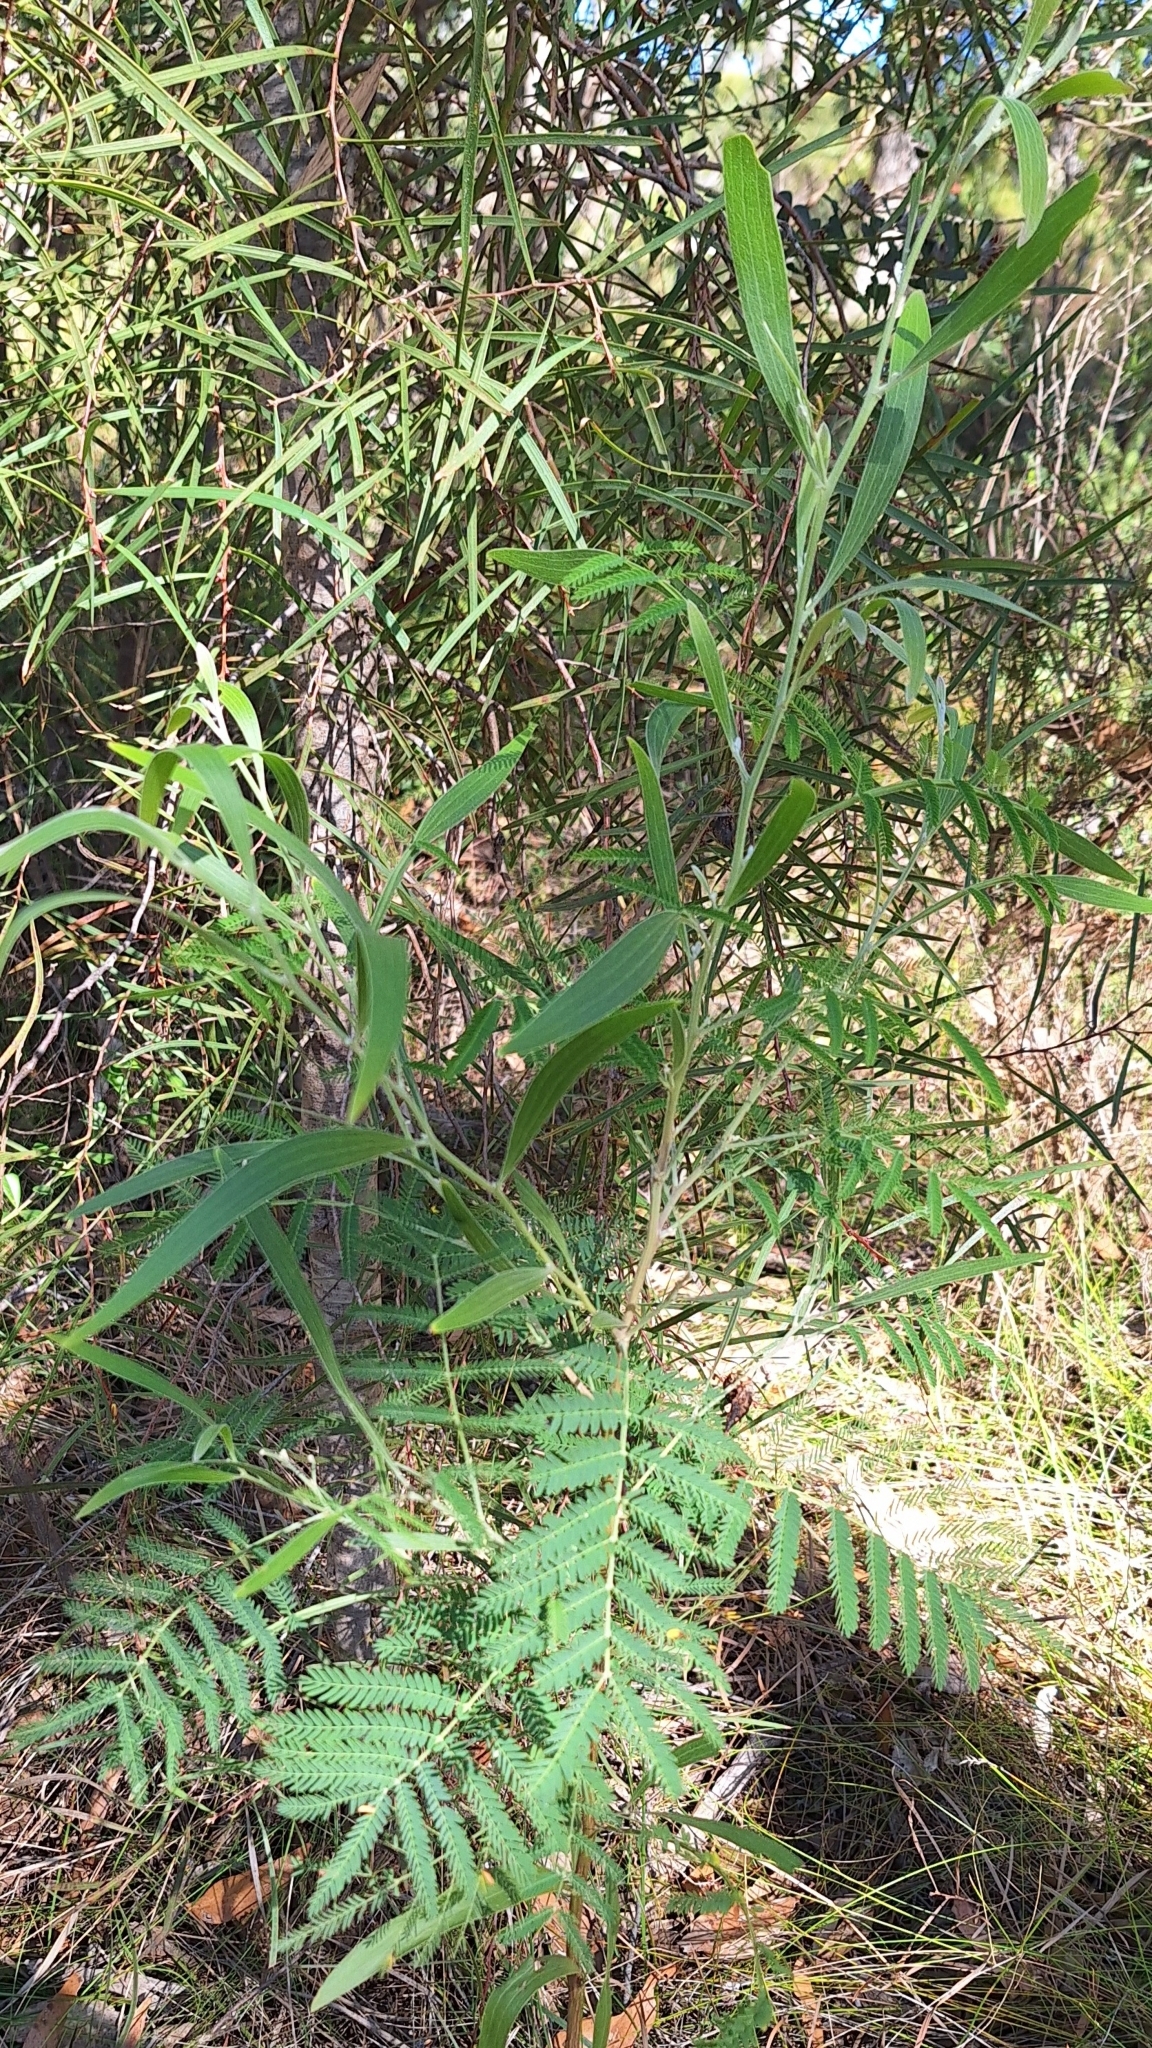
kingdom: Plantae
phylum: Tracheophyta
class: Magnoliopsida
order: Fabales
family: Fabaceae
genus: Acacia
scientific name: Acacia melanoxylon
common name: Blackwood
